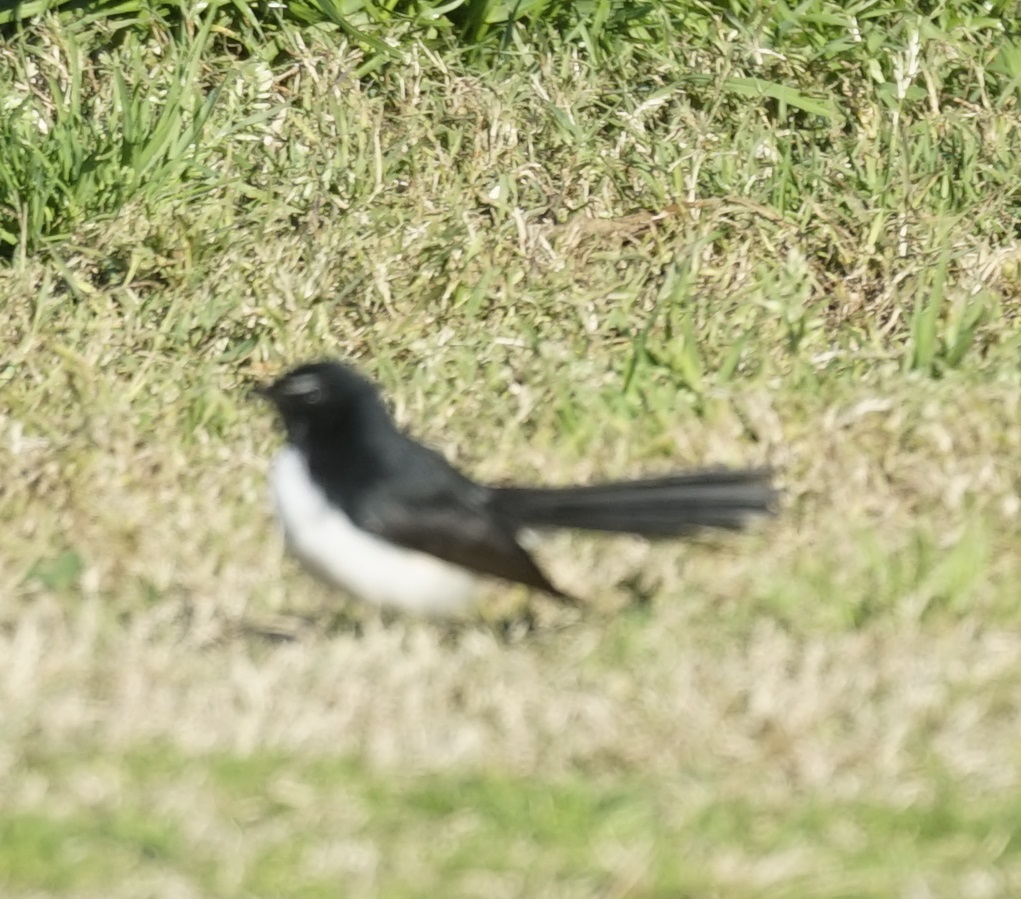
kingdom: Animalia
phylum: Chordata
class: Aves
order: Passeriformes
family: Rhipiduridae
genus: Rhipidura
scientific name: Rhipidura leucophrys
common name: Willie wagtail
